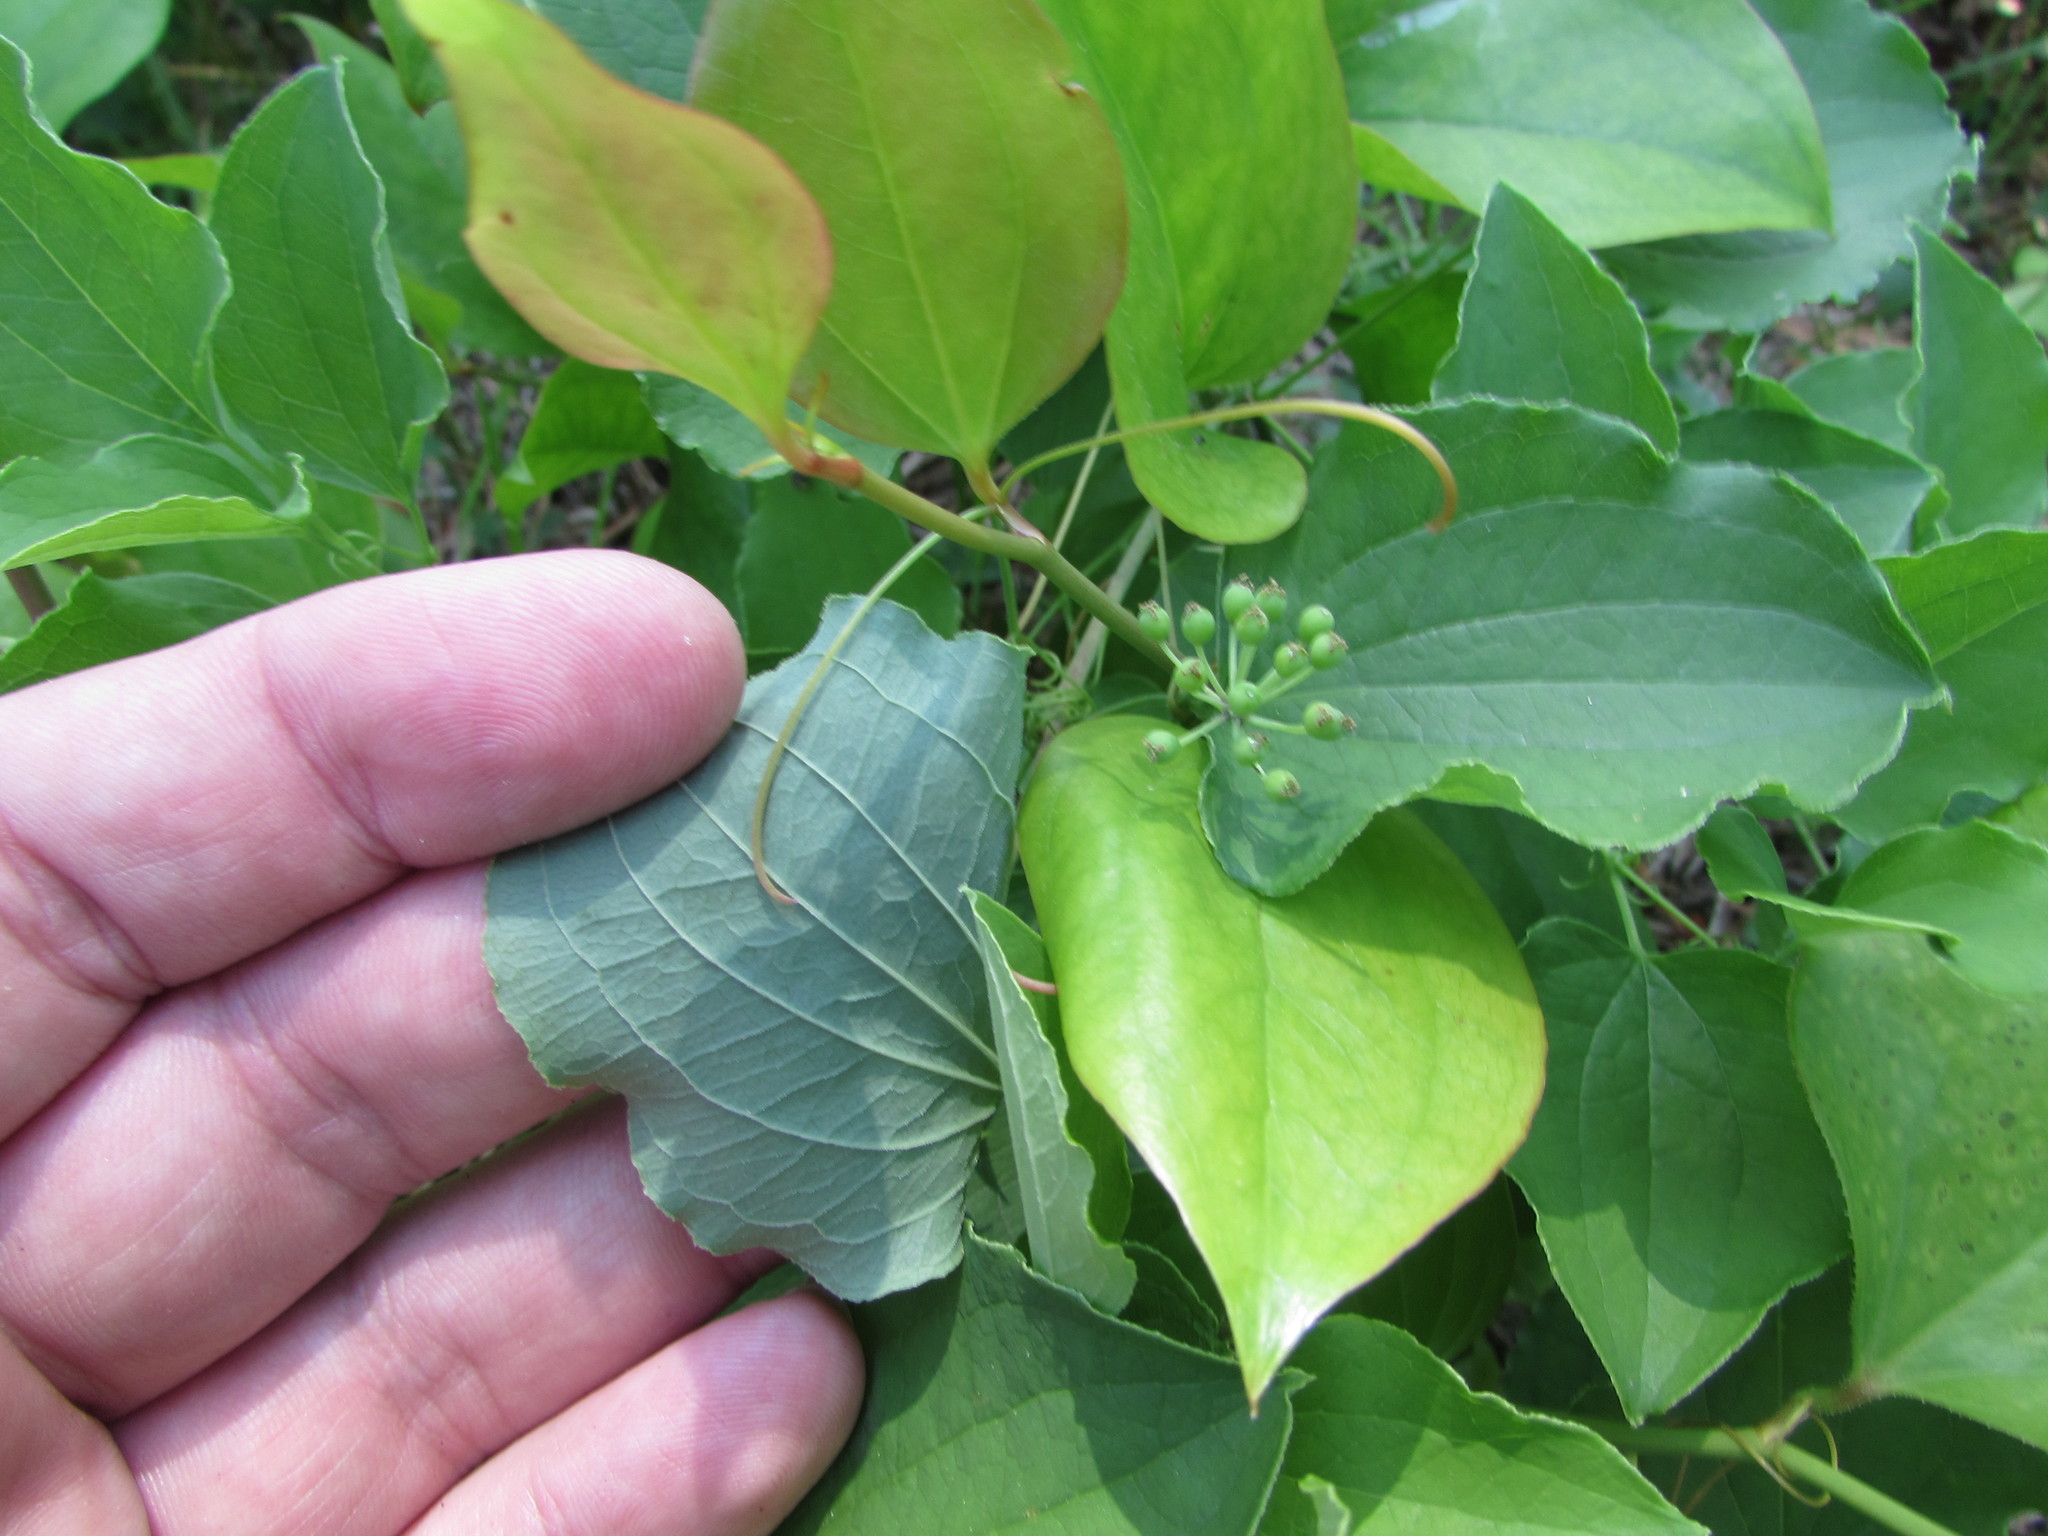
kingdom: Plantae
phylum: Tracheophyta
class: Liliopsida
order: Liliales
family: Smilacaceae
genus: Smilax
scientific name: Smilax herbacea
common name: Jacob's-ladder
